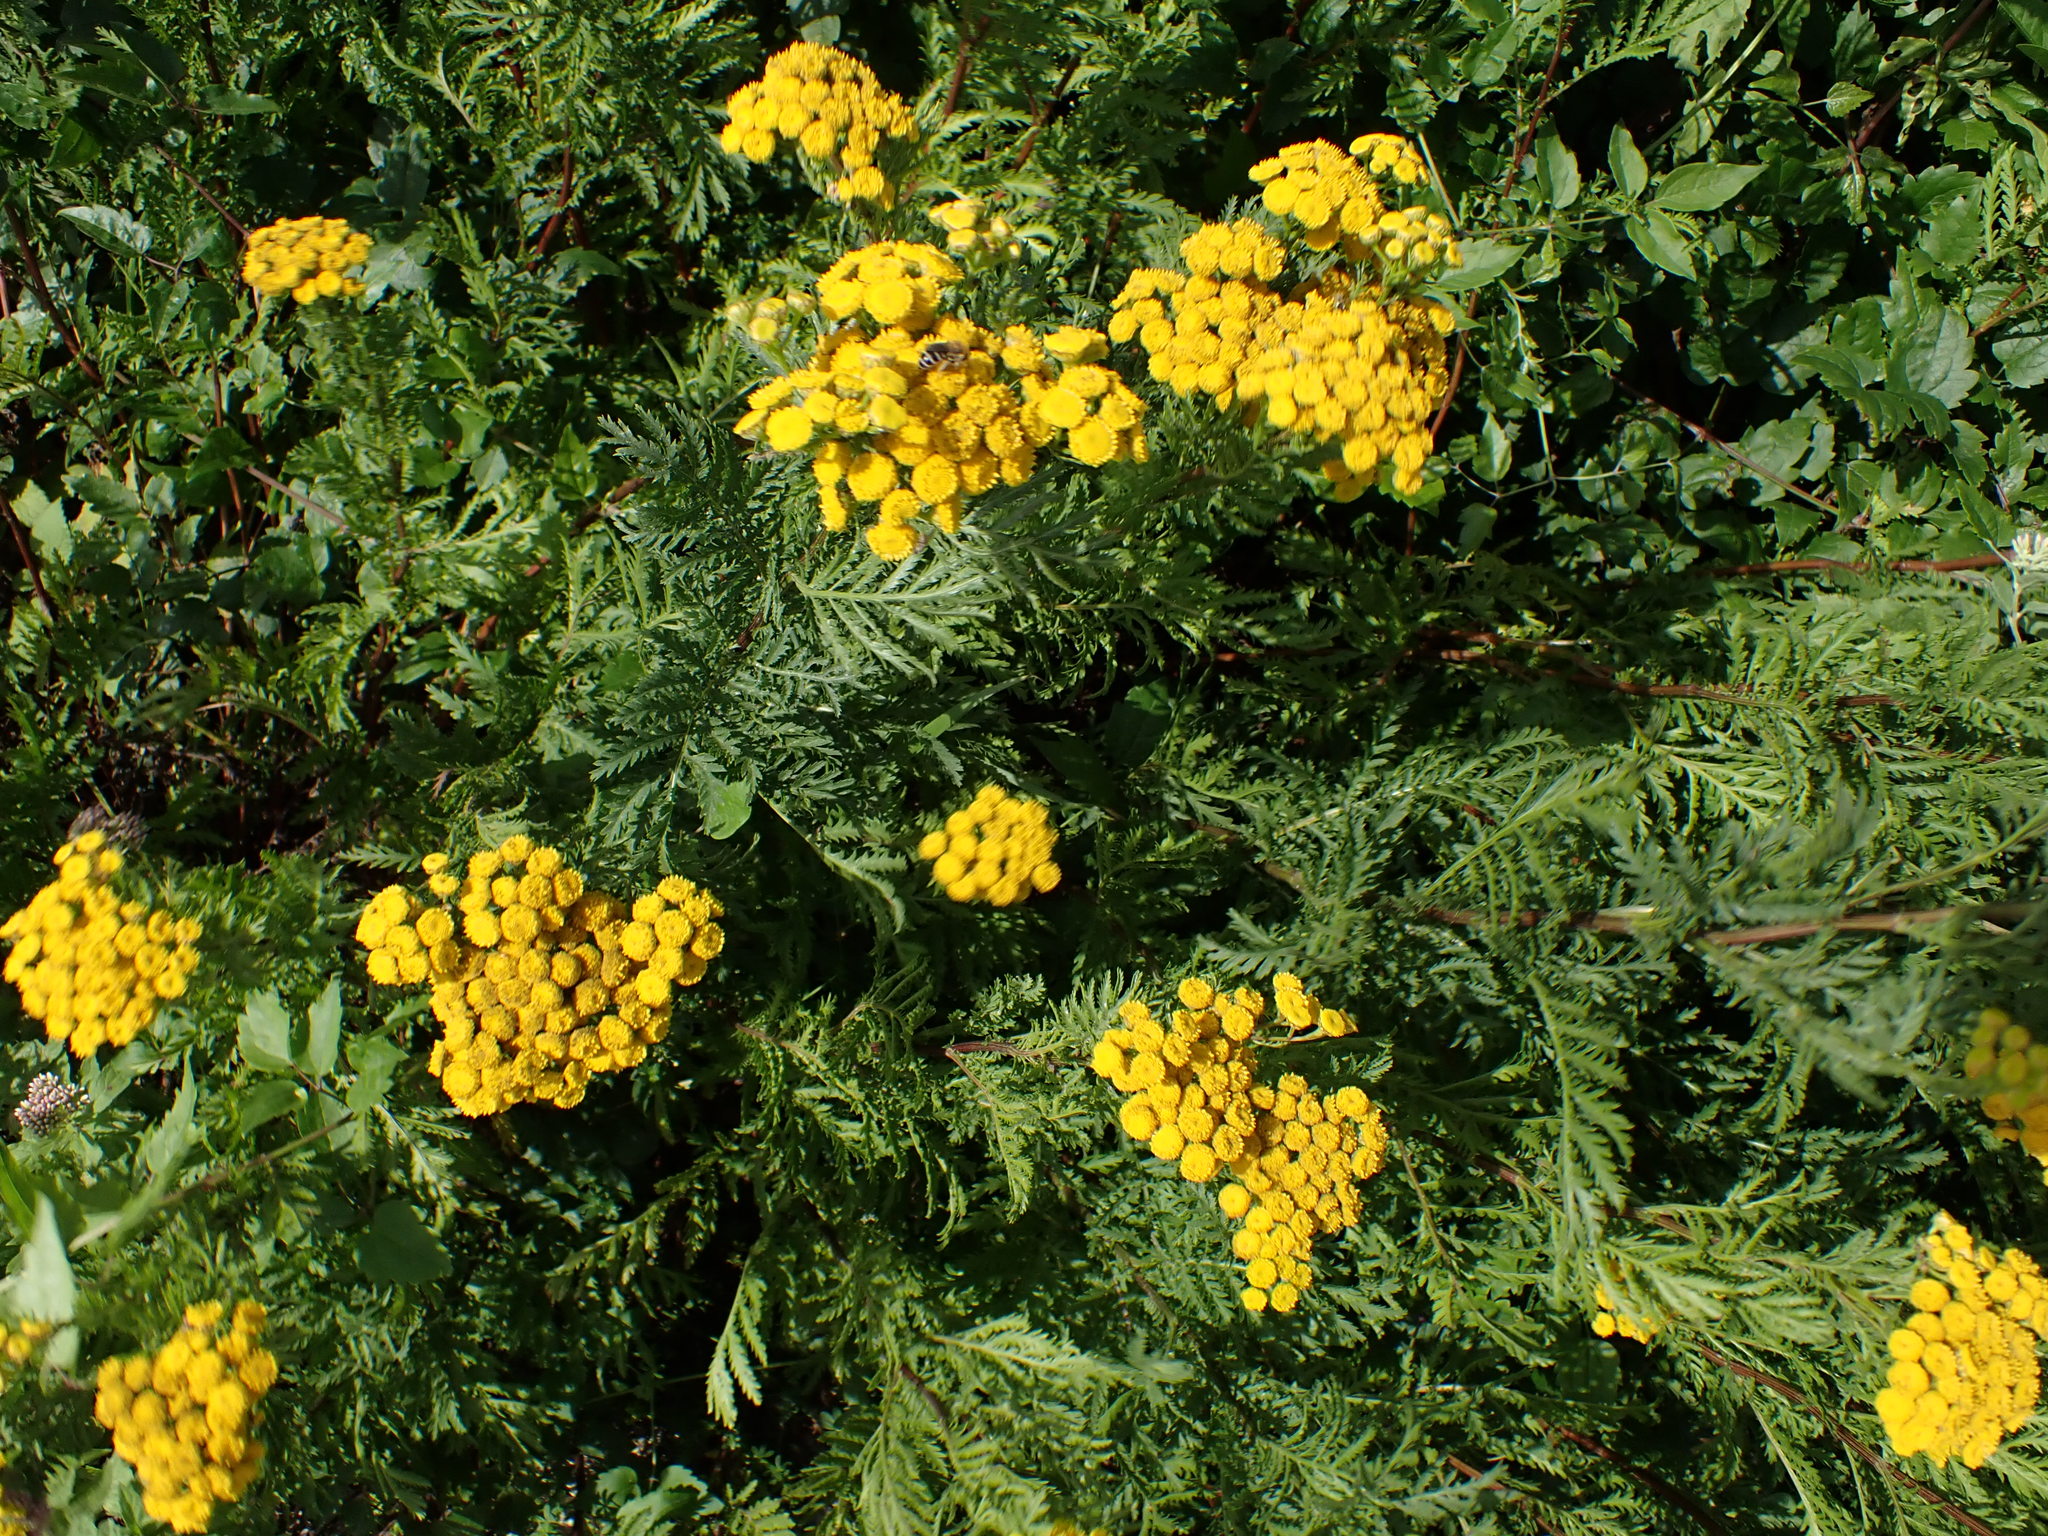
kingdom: Plantae
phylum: Tracheophyta
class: Magnoliopsida
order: Asterales
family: Asteraceae
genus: Tanacetum
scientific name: Tanacetum vulgare
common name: Common tansy
